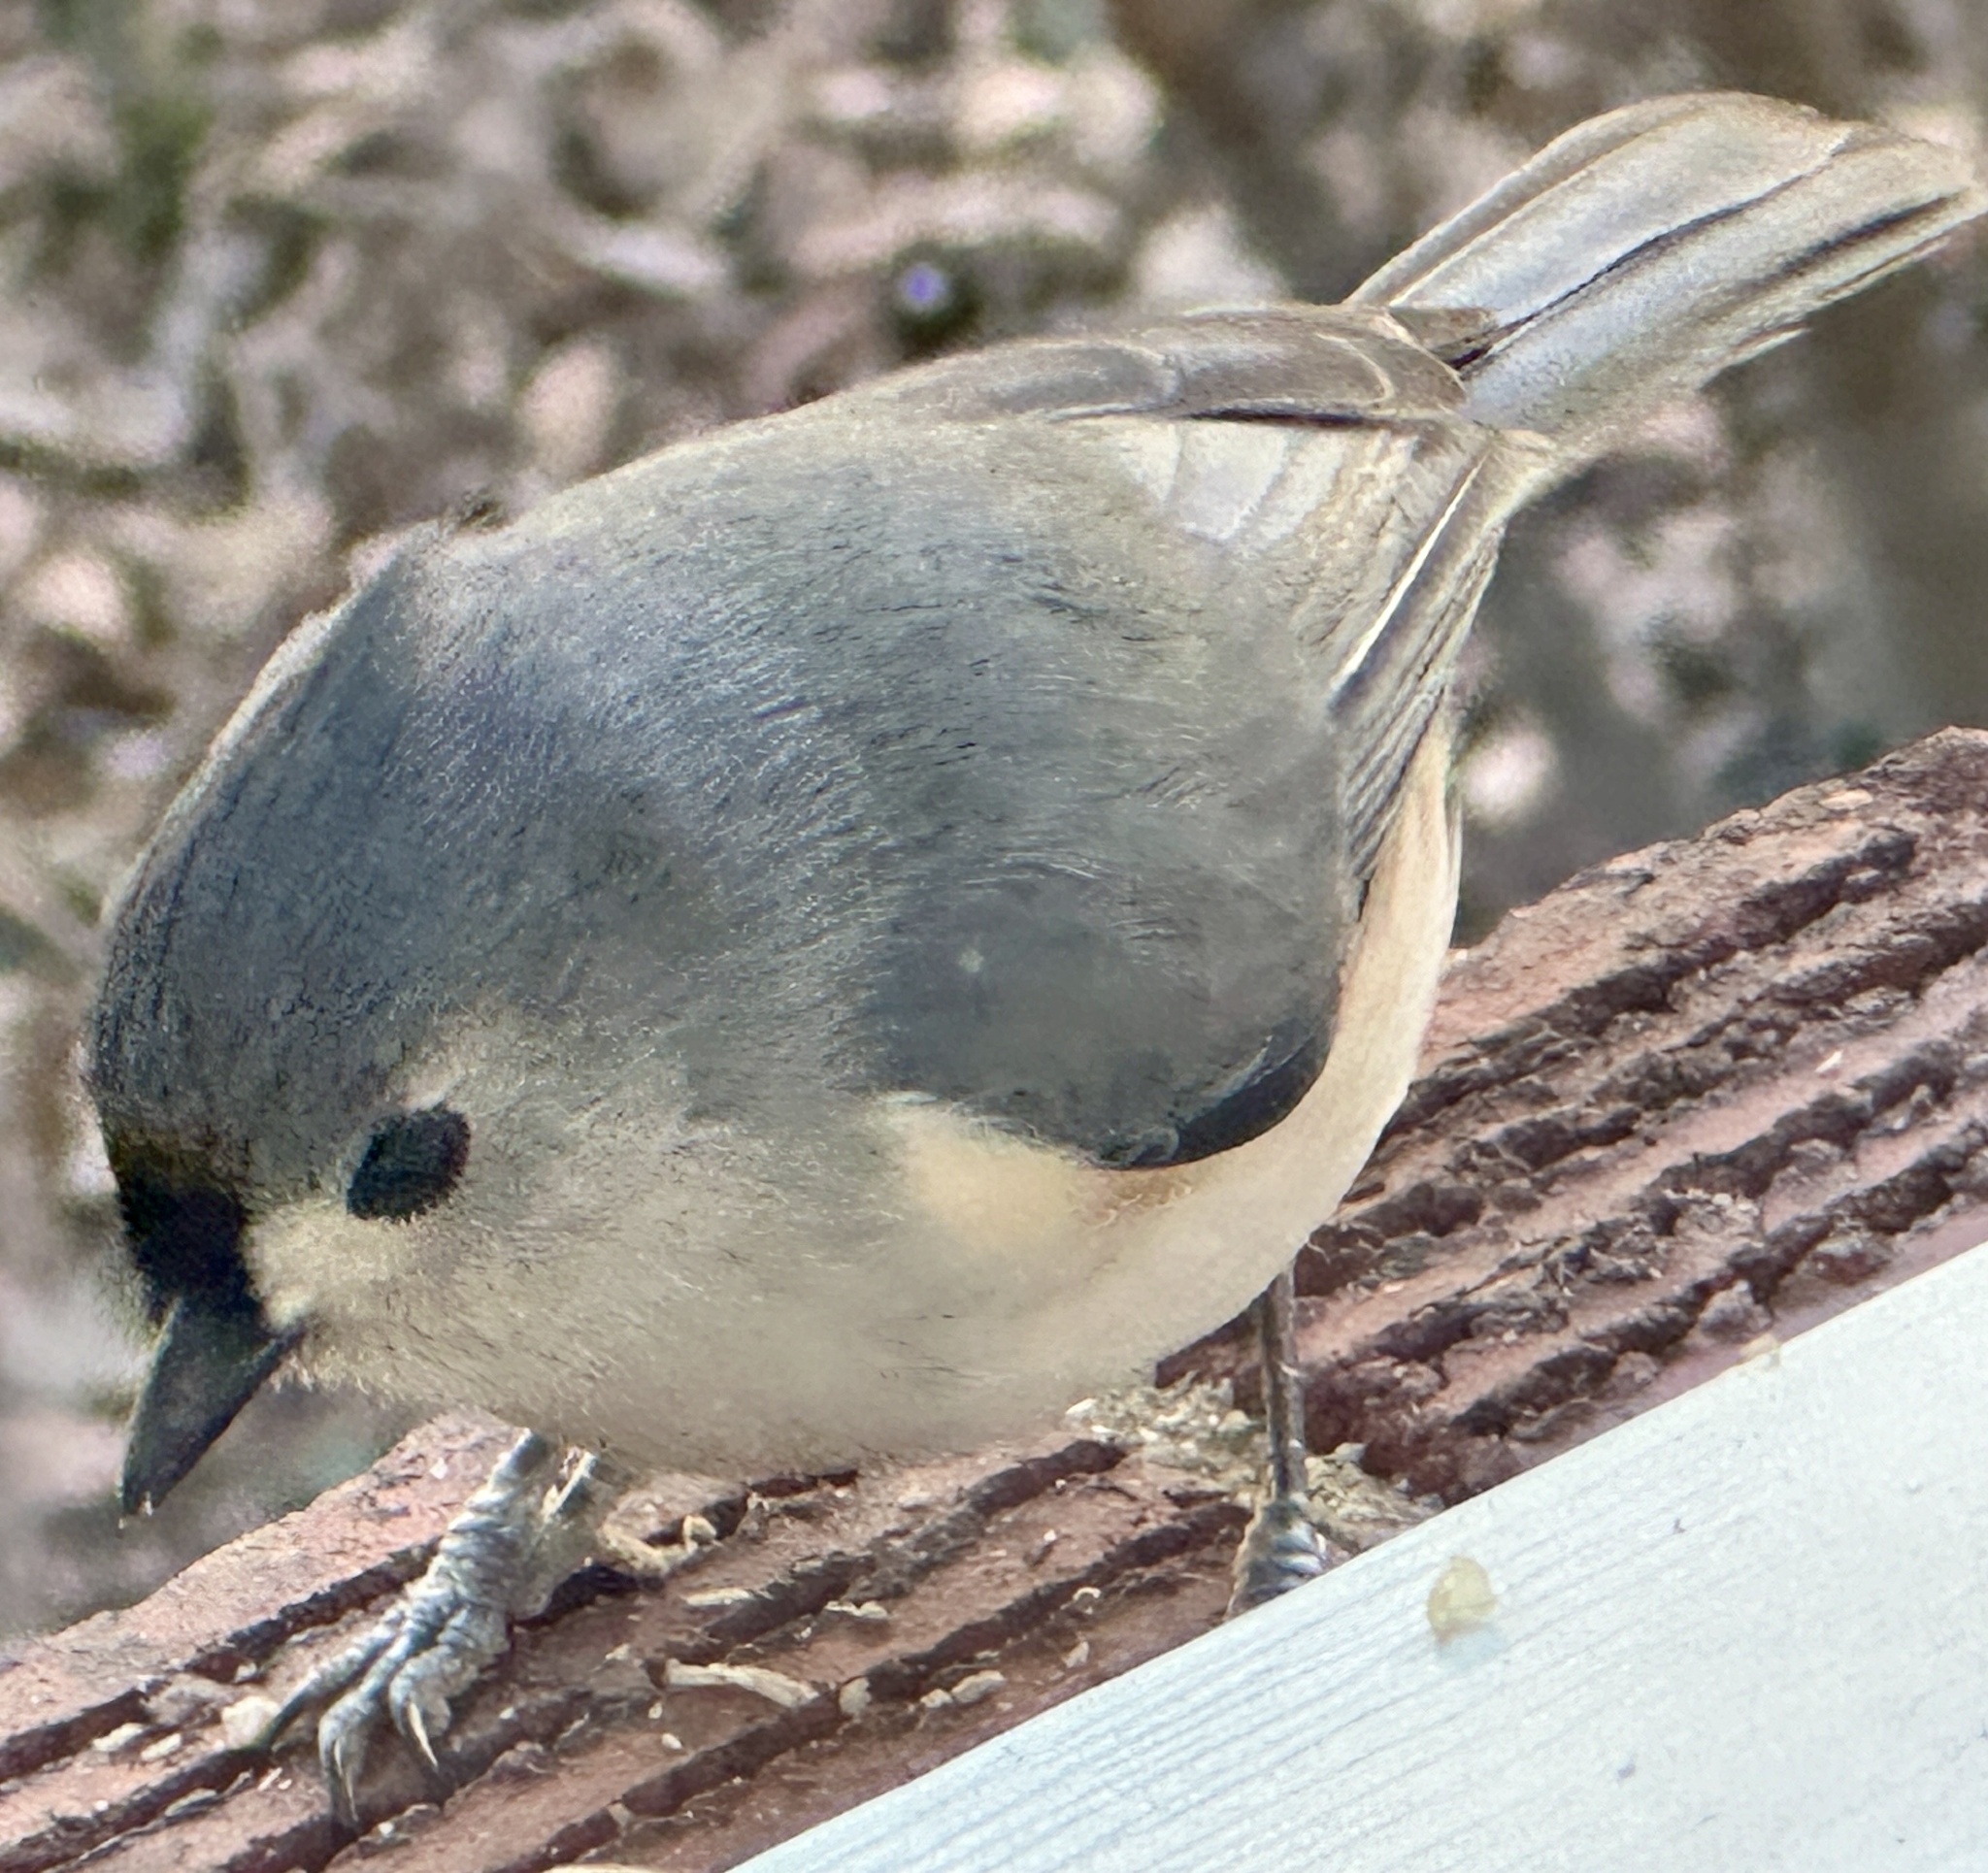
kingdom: Animalia
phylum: Chordata
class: Aves
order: Passeriformes
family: Paridae
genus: Baeolophus
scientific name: Baeolophus bicolor
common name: Tufted titmouse
